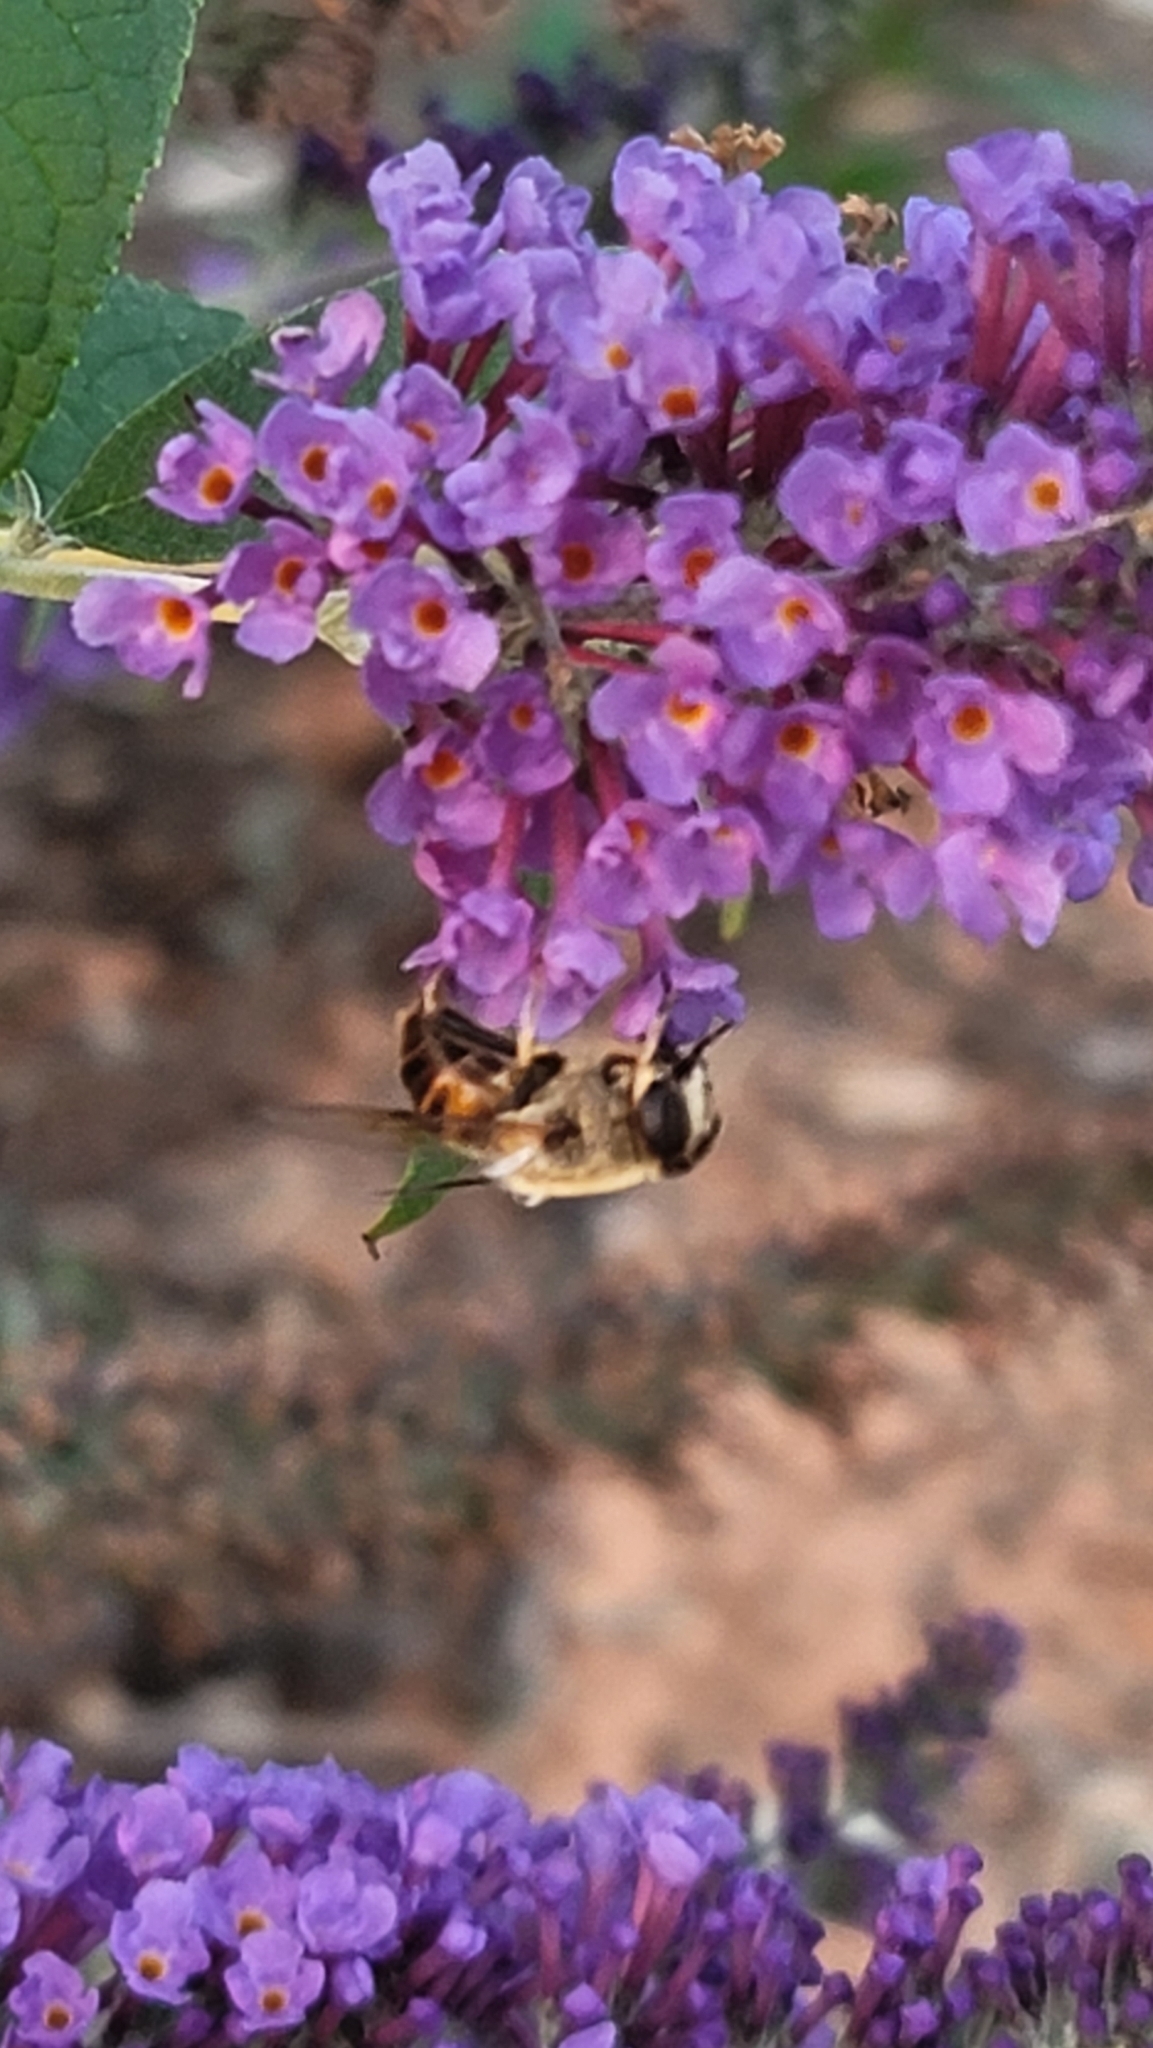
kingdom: Animalia
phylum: Arthropoda
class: Insecta
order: Diptera
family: Syrphidae
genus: Eristalis
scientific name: Eristalis tenax
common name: Drone fly
